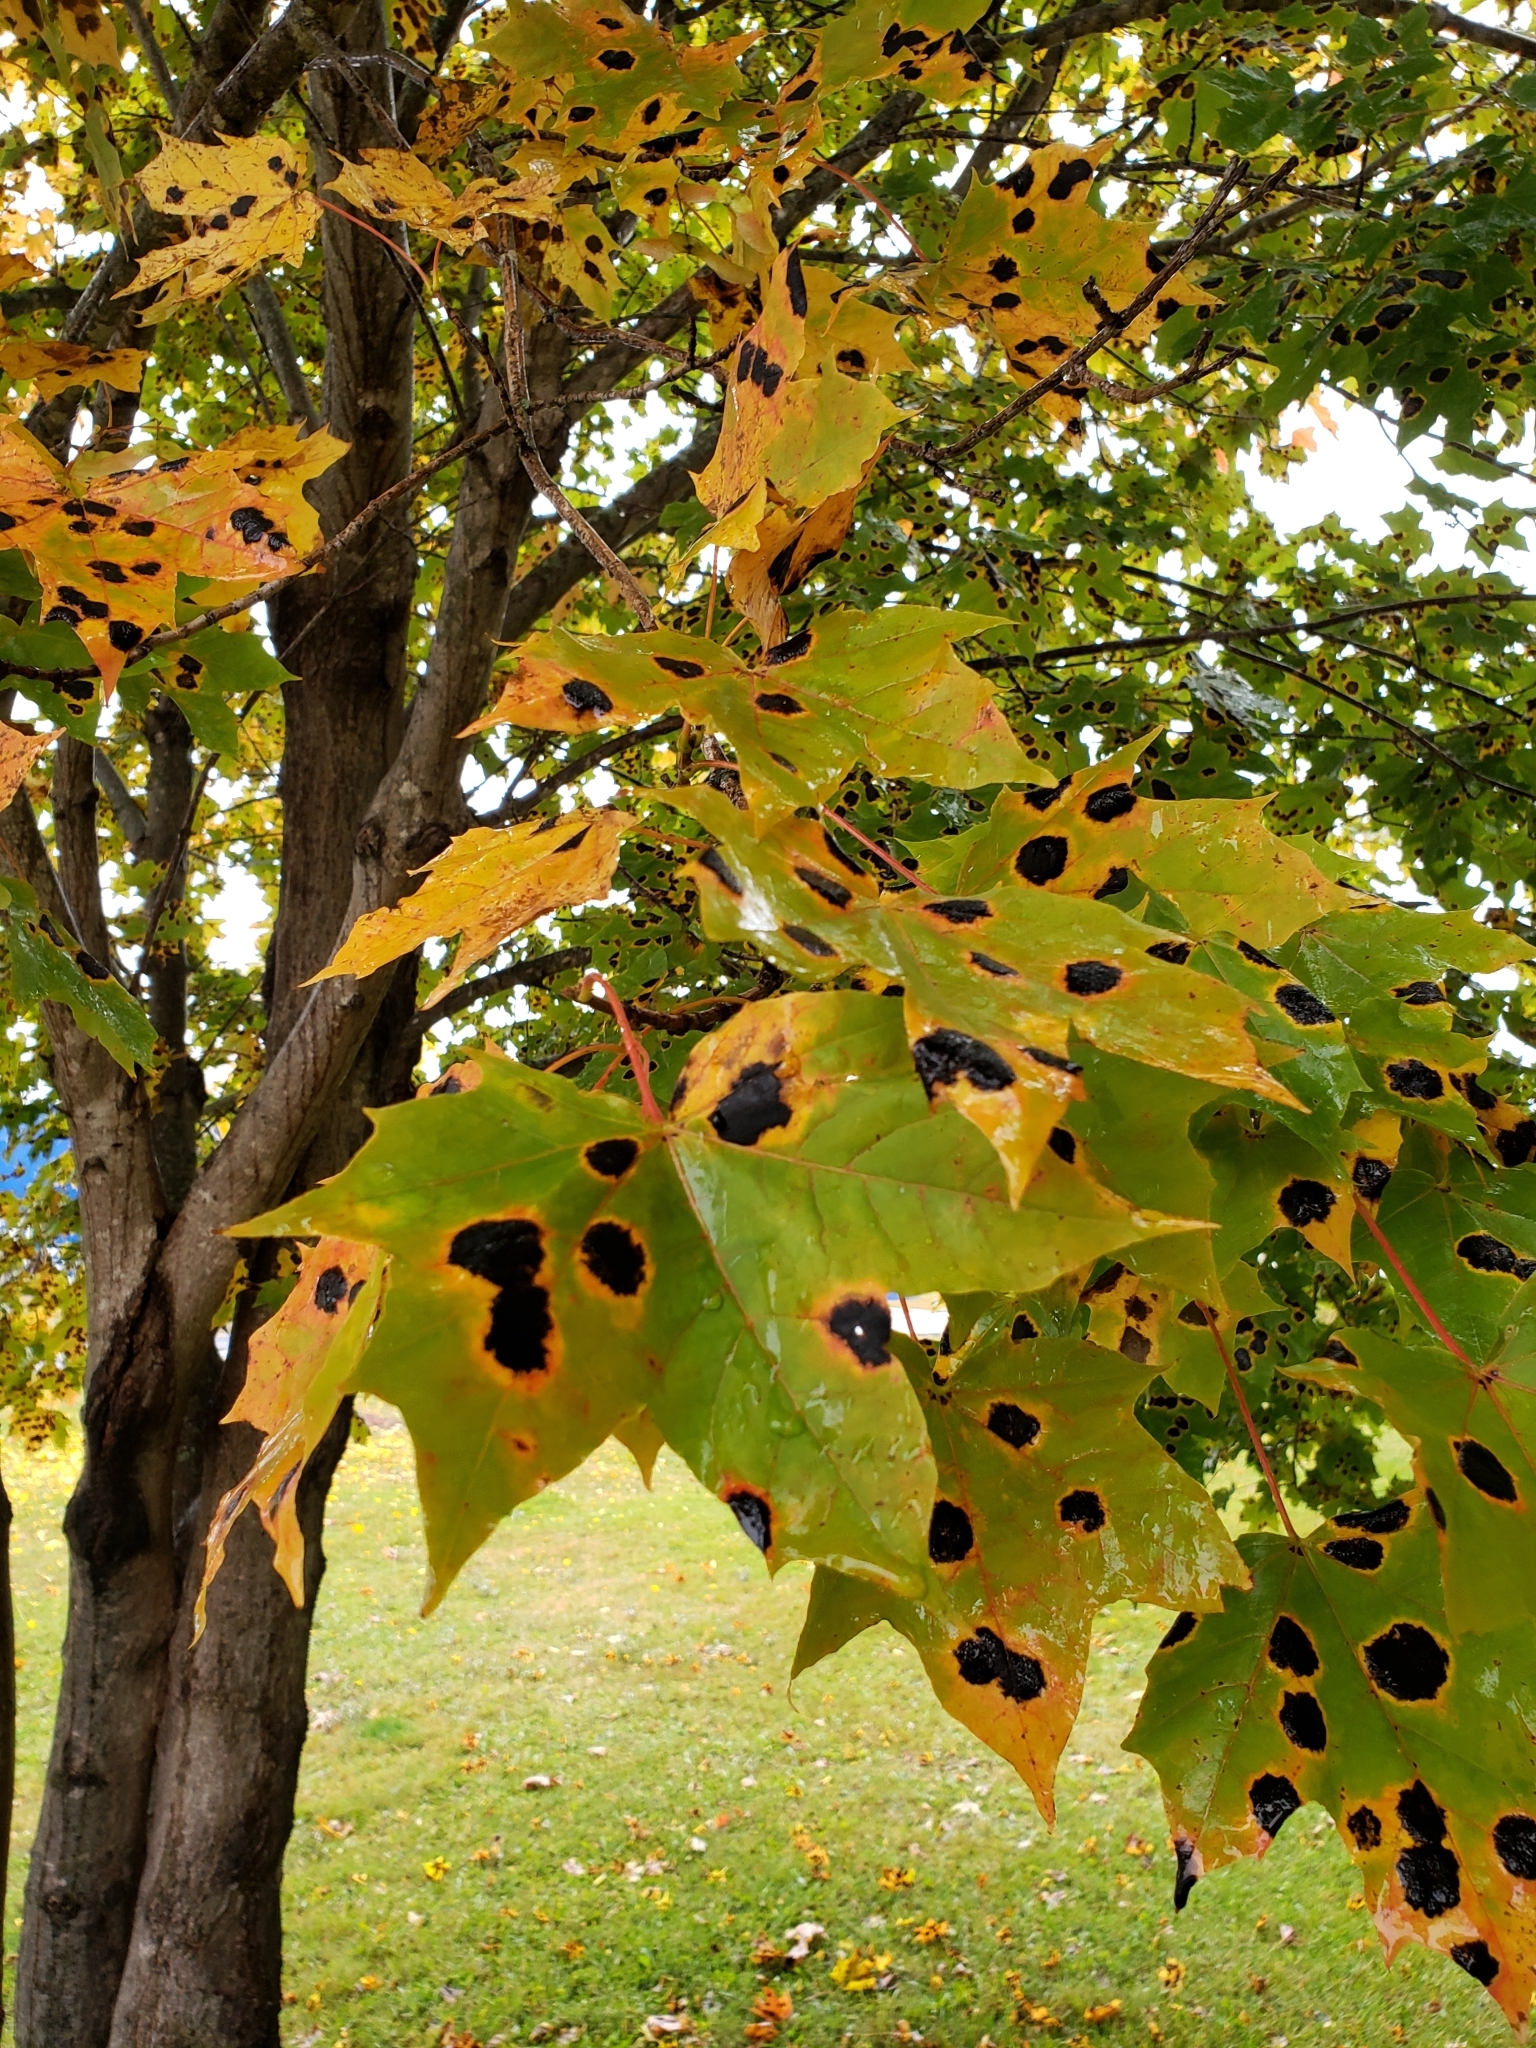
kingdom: Fungi
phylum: Ascomycota
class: Leotiomycetes
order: Rhytismatales
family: Rhytismataceae
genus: Rhytisma
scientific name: Rhytisma acerinum
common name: European tar spot
